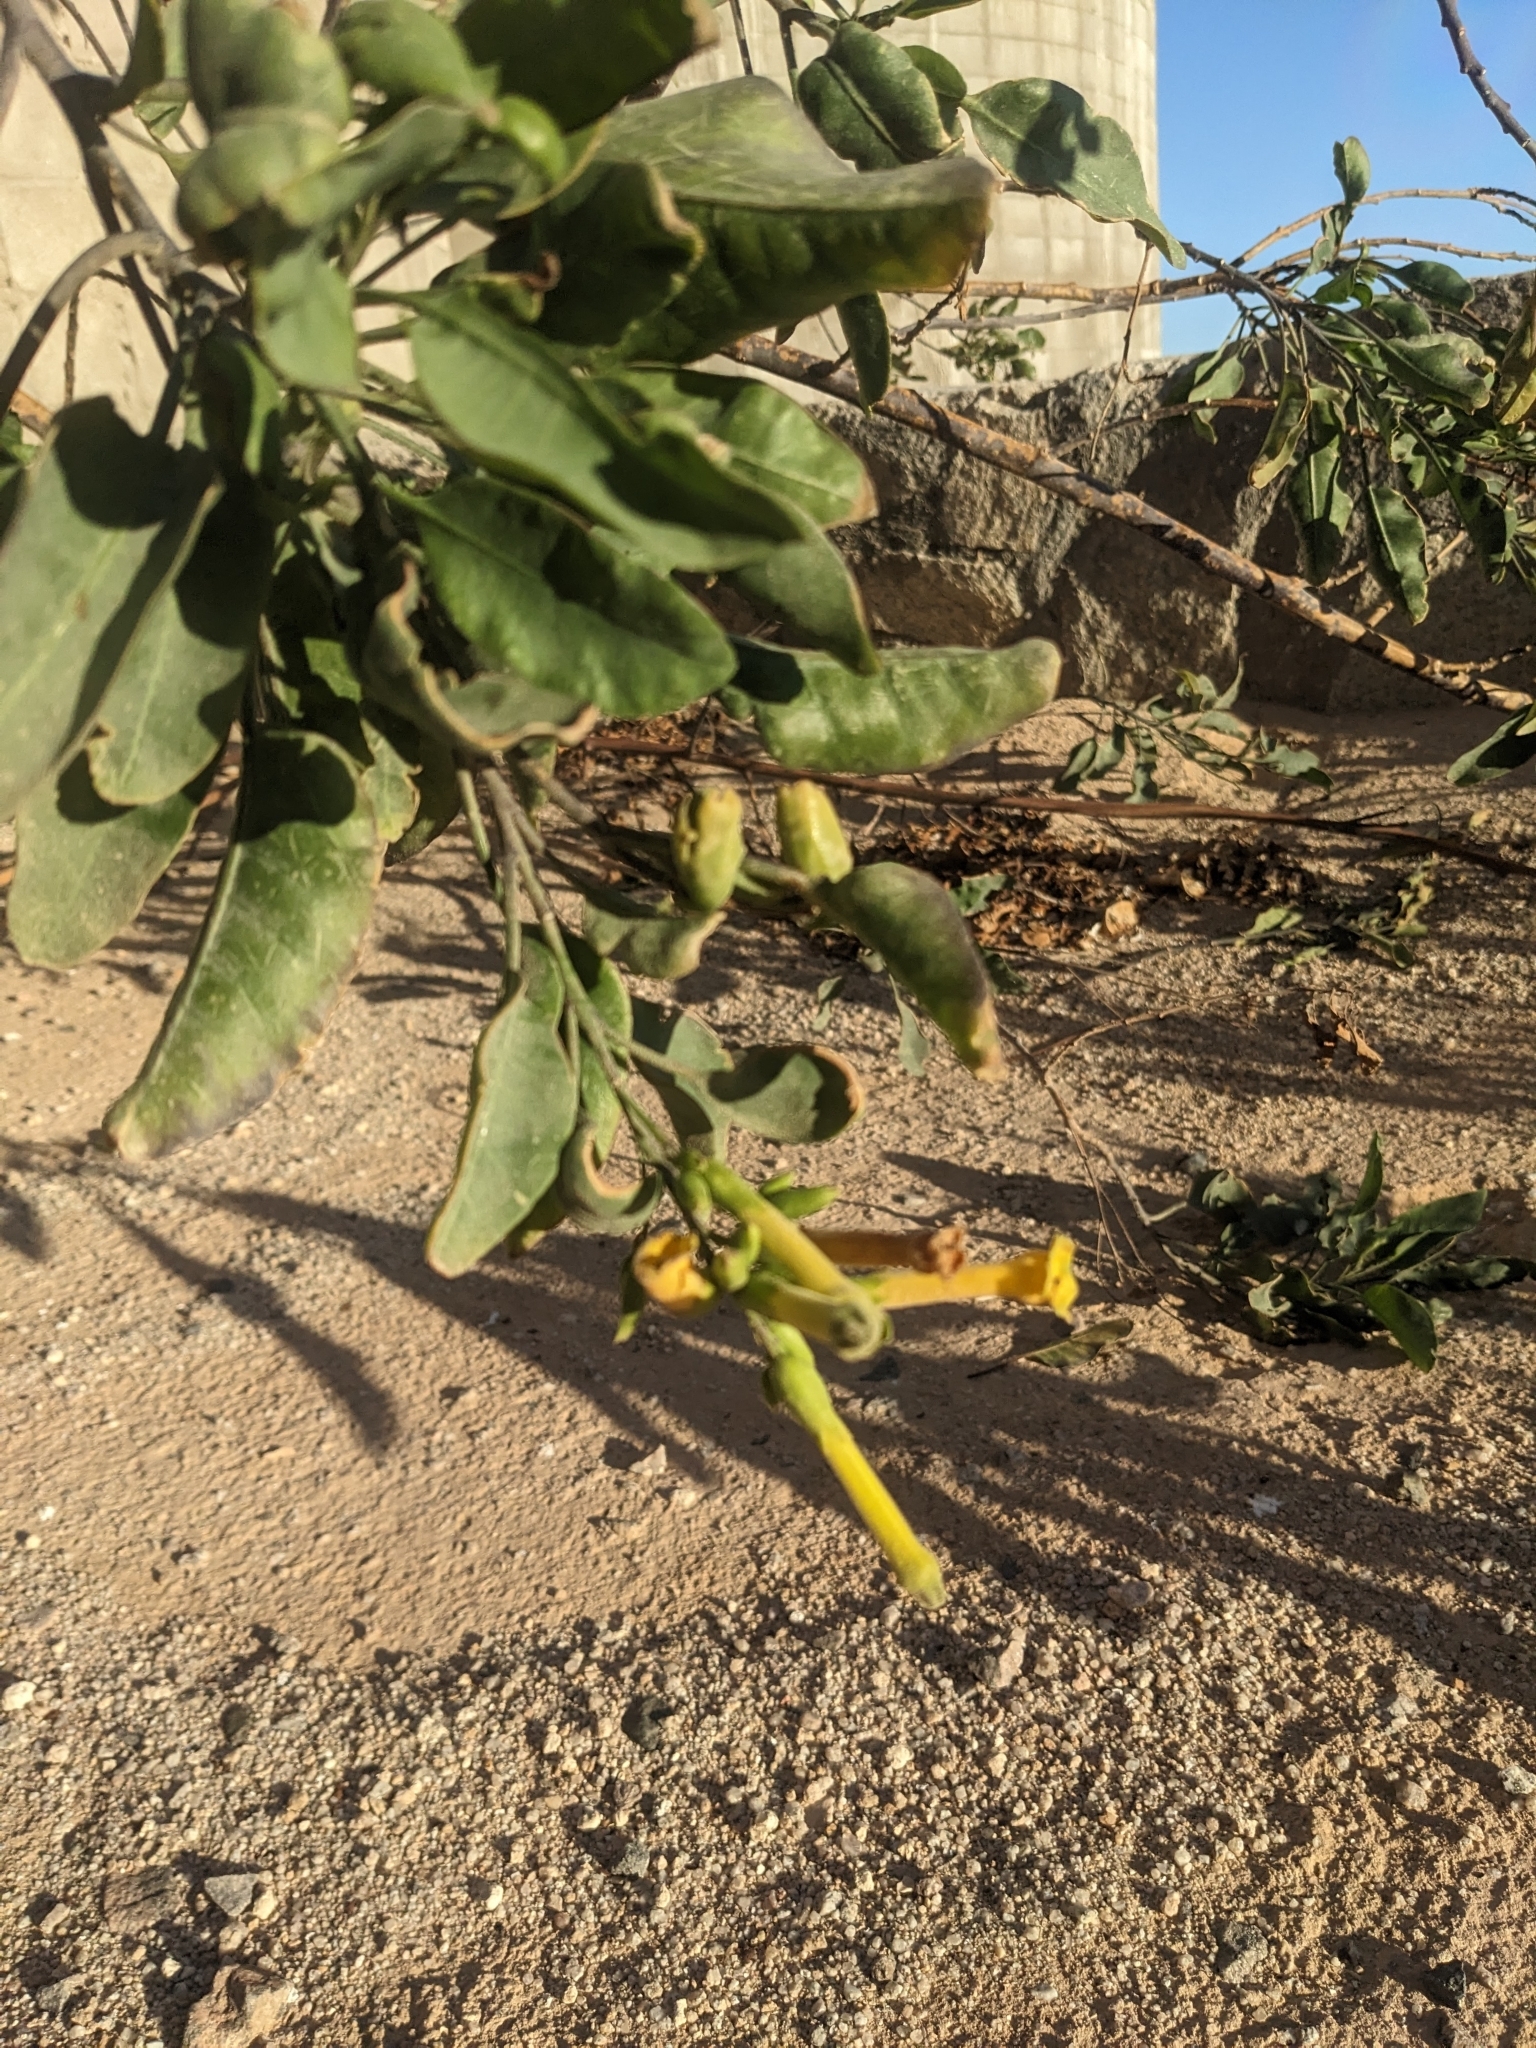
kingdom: Plantae
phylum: Tracheophyta
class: Magnoliopsida
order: Solanales
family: Solanaceae
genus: Nicotiana
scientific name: Nicotiana glauca
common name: Tree tobacco
